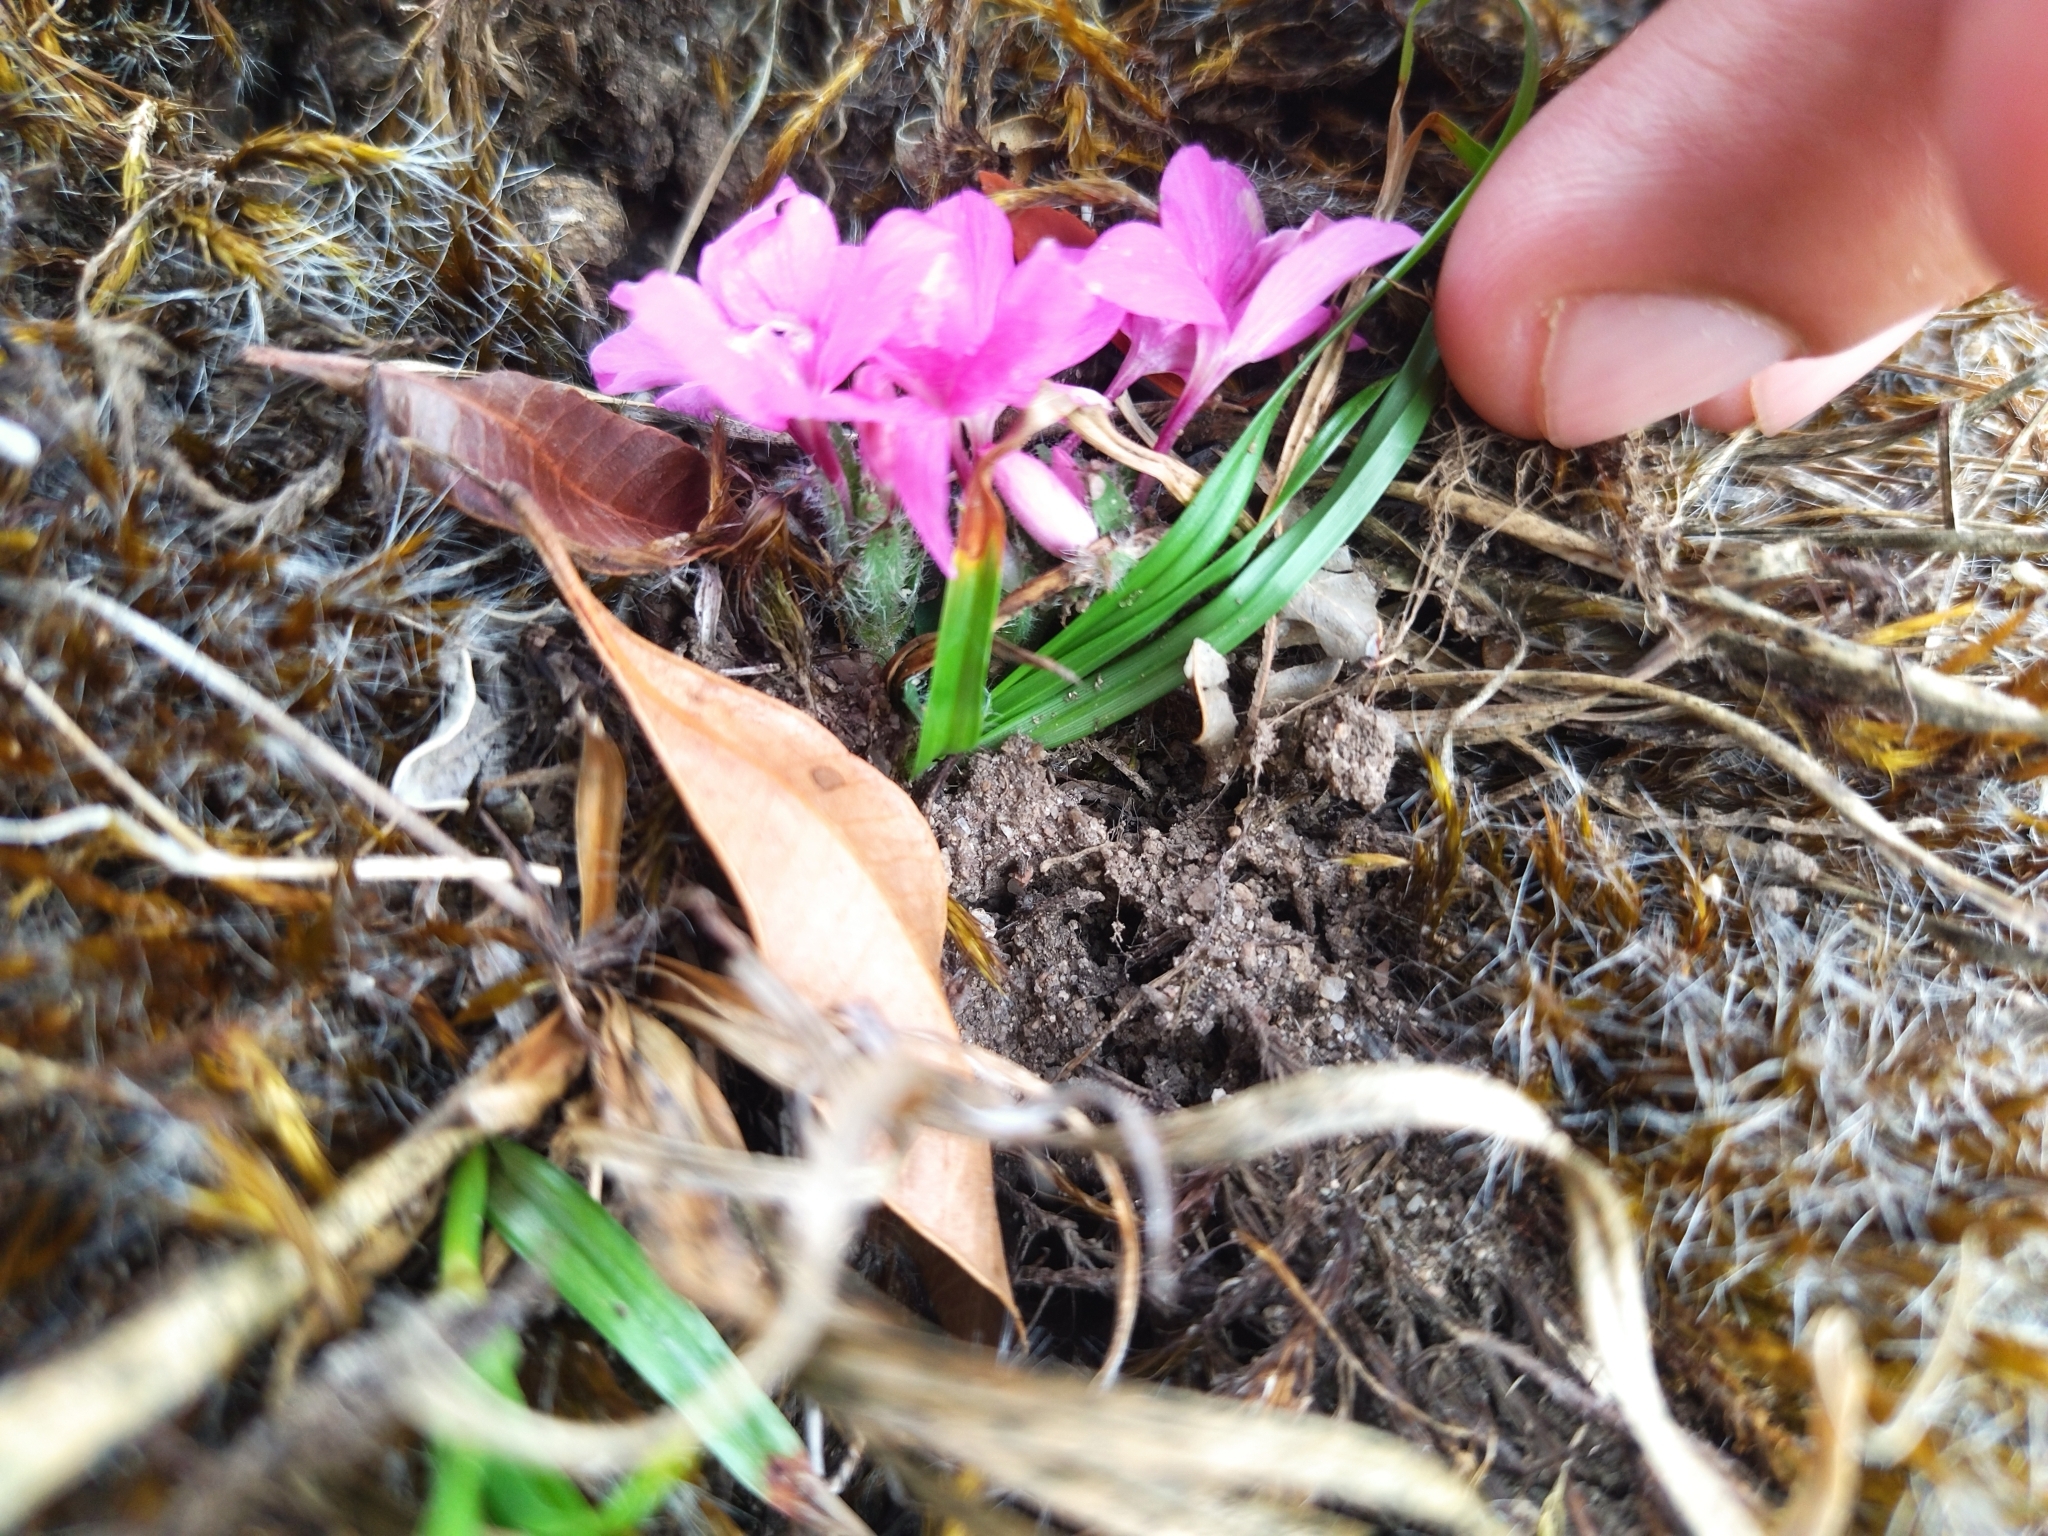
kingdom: Plantae
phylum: Tracheophyta
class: Magnoliopsida
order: Lamiales
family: Acanthaceae
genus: Stenandrium
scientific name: Stenandrium dulce
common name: Pinklet
